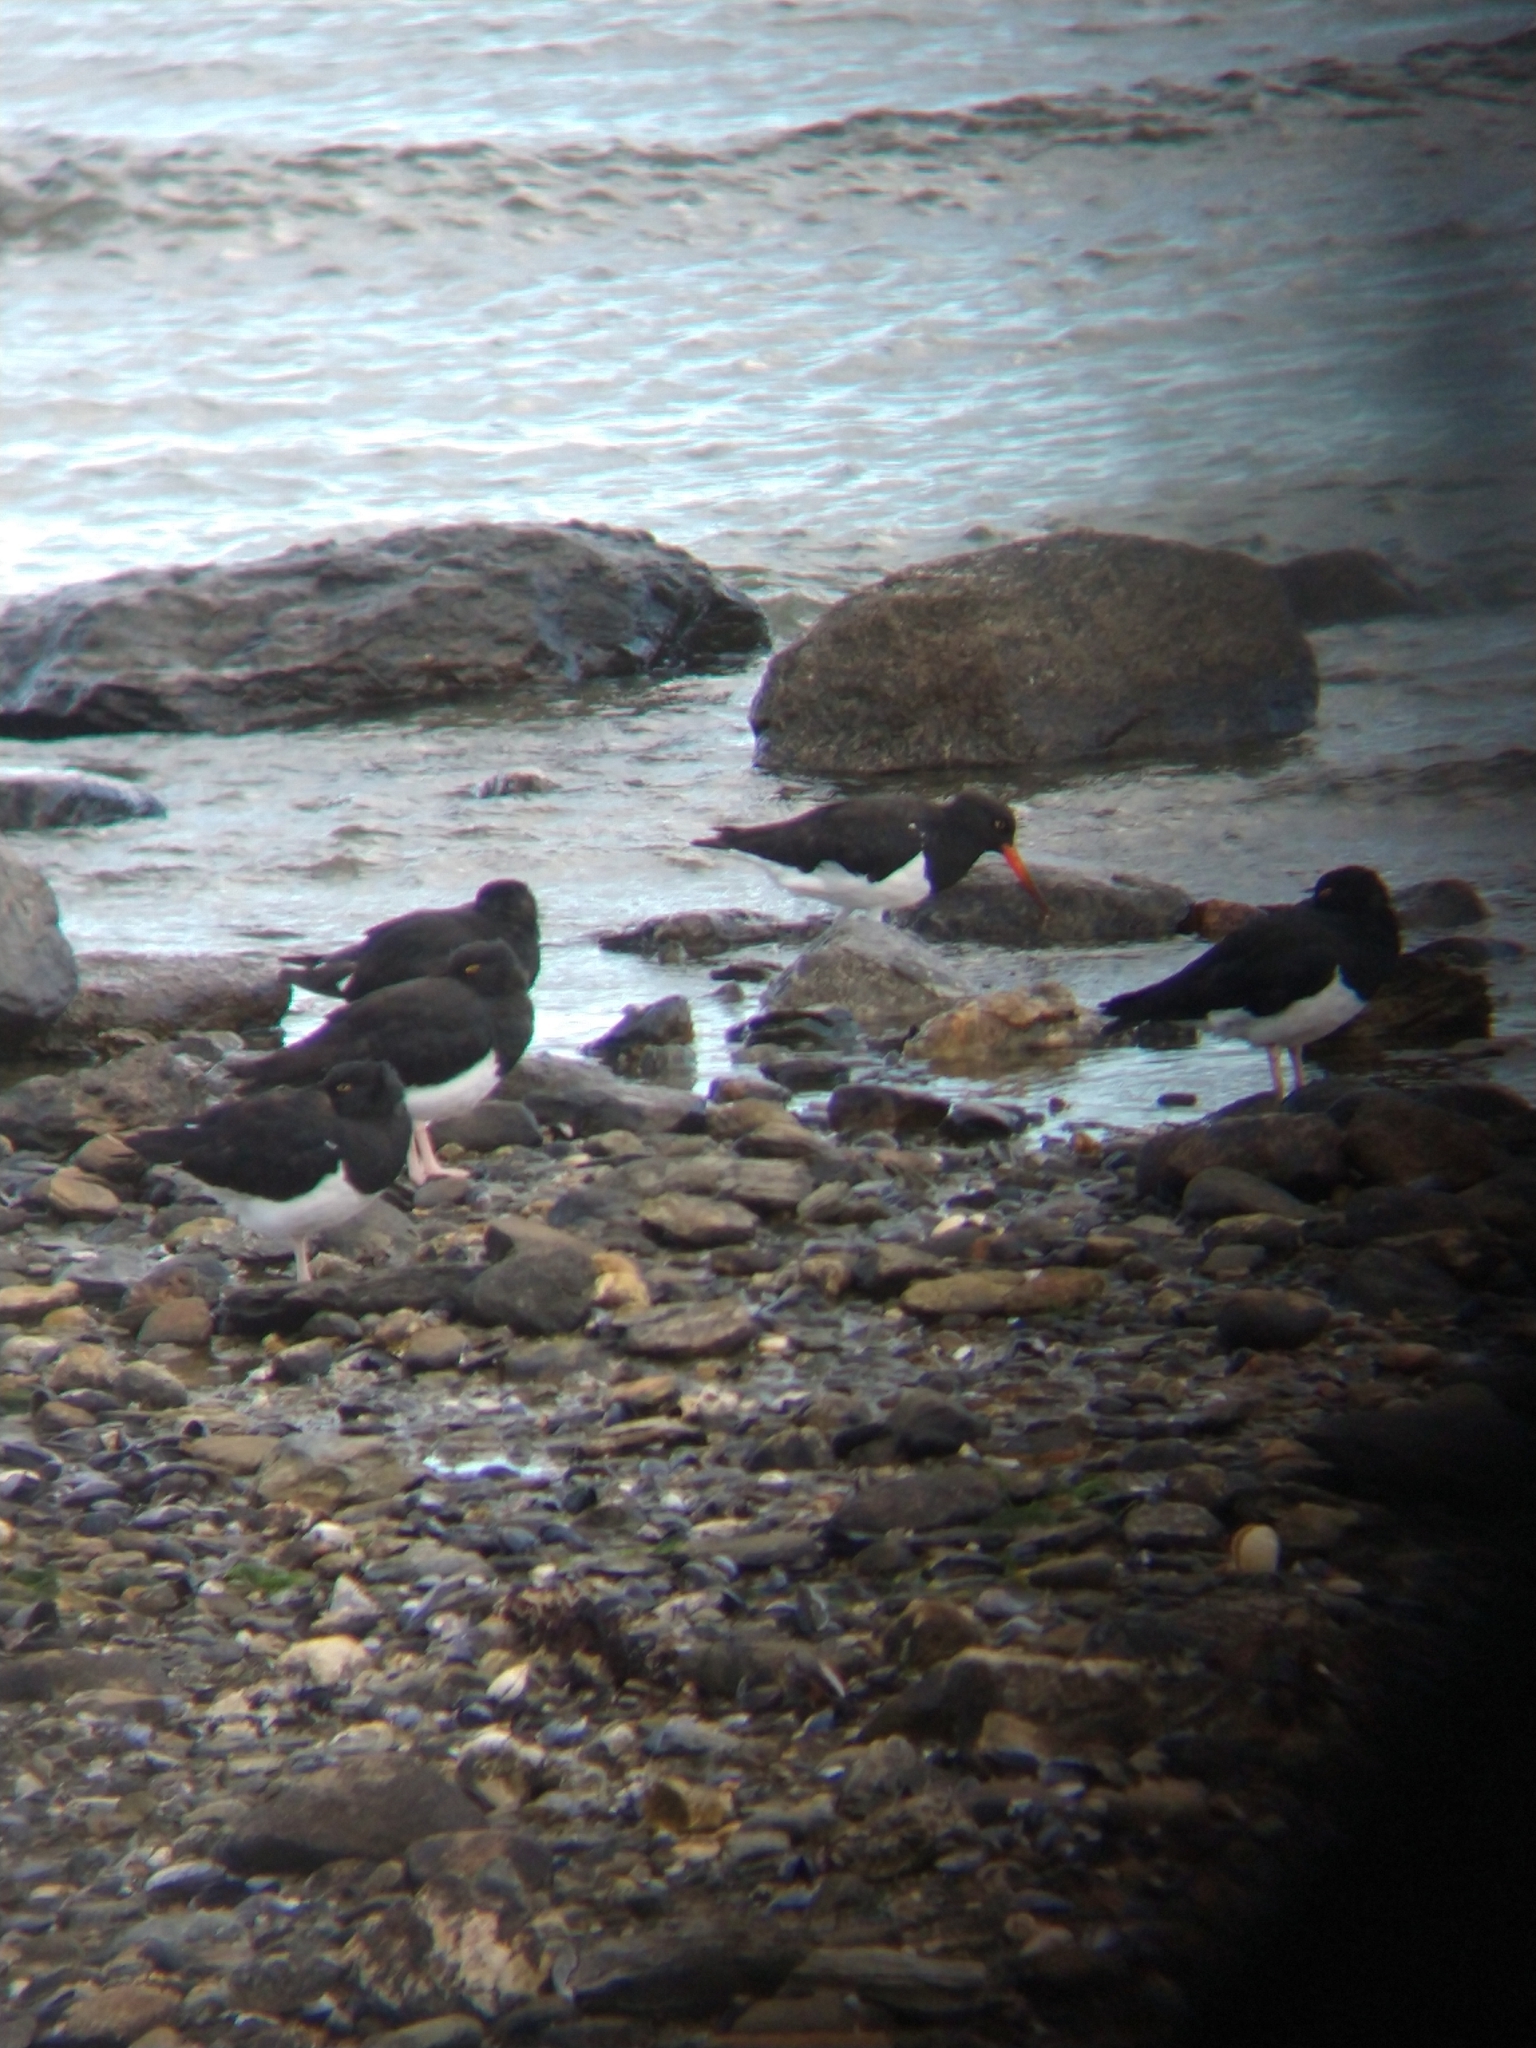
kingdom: Animalia
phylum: Chordata
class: Aves
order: Charadriiformes
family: Haematopodidae
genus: Haematopus
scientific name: Haematopus leucopodus
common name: Magellanic oystercatcher
